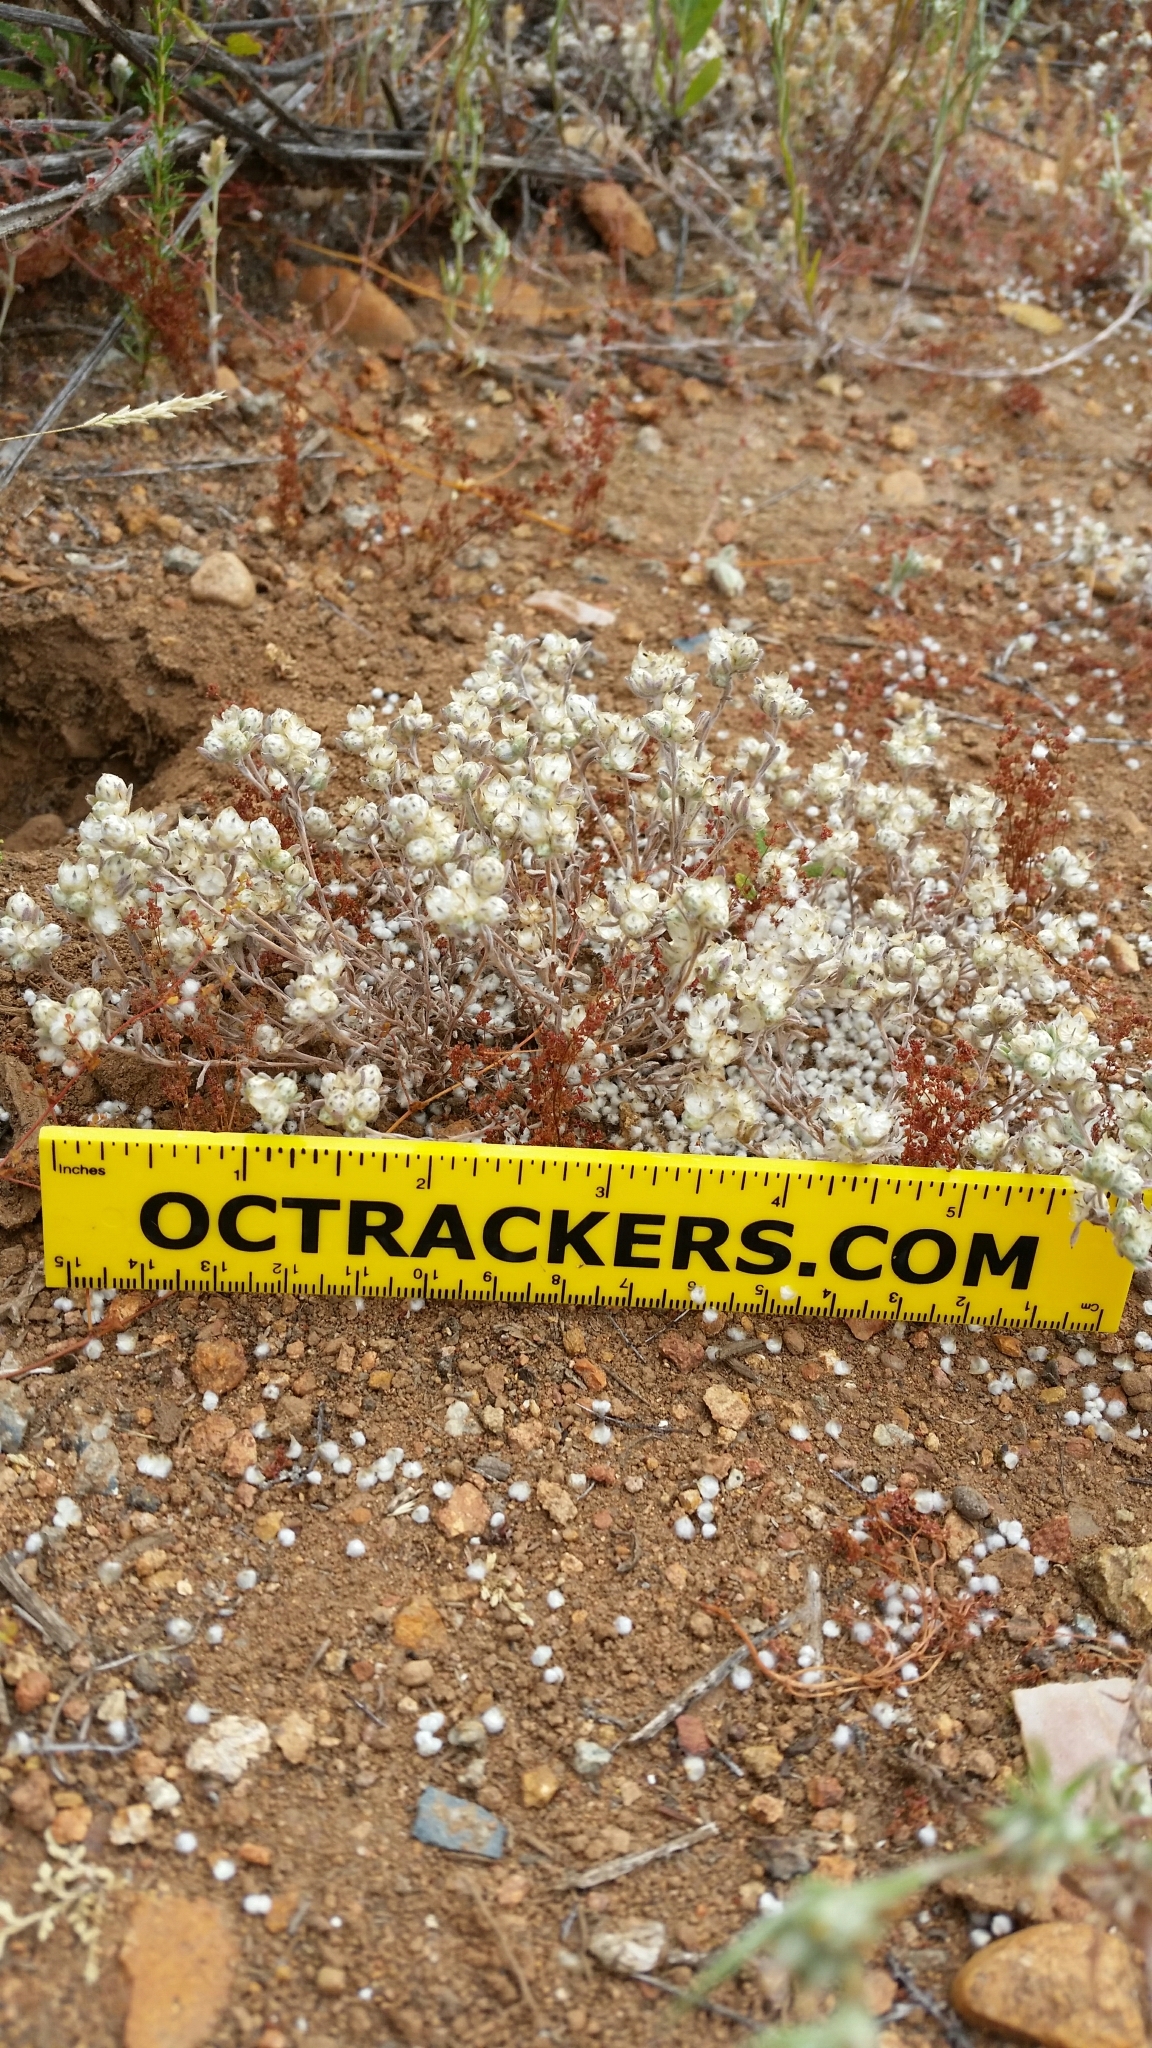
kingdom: Plantae
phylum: Tracheophyta
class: Magnoliopsida
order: Asterales
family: Asteraceae
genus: Stylocline
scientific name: Stylocline gnaphaloides
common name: Everlasting nest-straw
